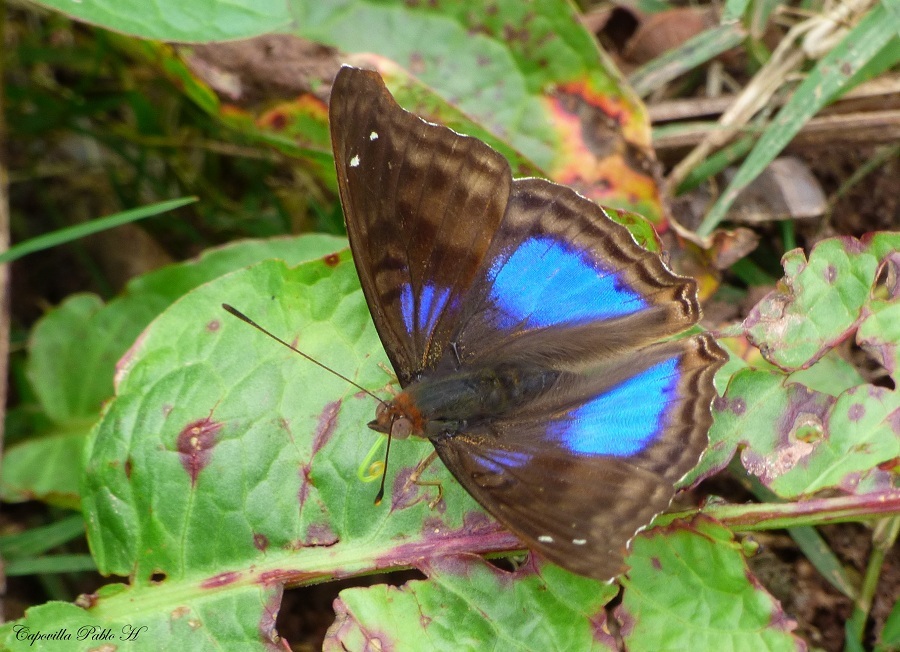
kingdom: Animalia
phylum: Arthropoda
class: Insecta
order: Lepidoptera
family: Nymphalidae
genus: Doxocopa
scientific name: Doxocopa cyane
